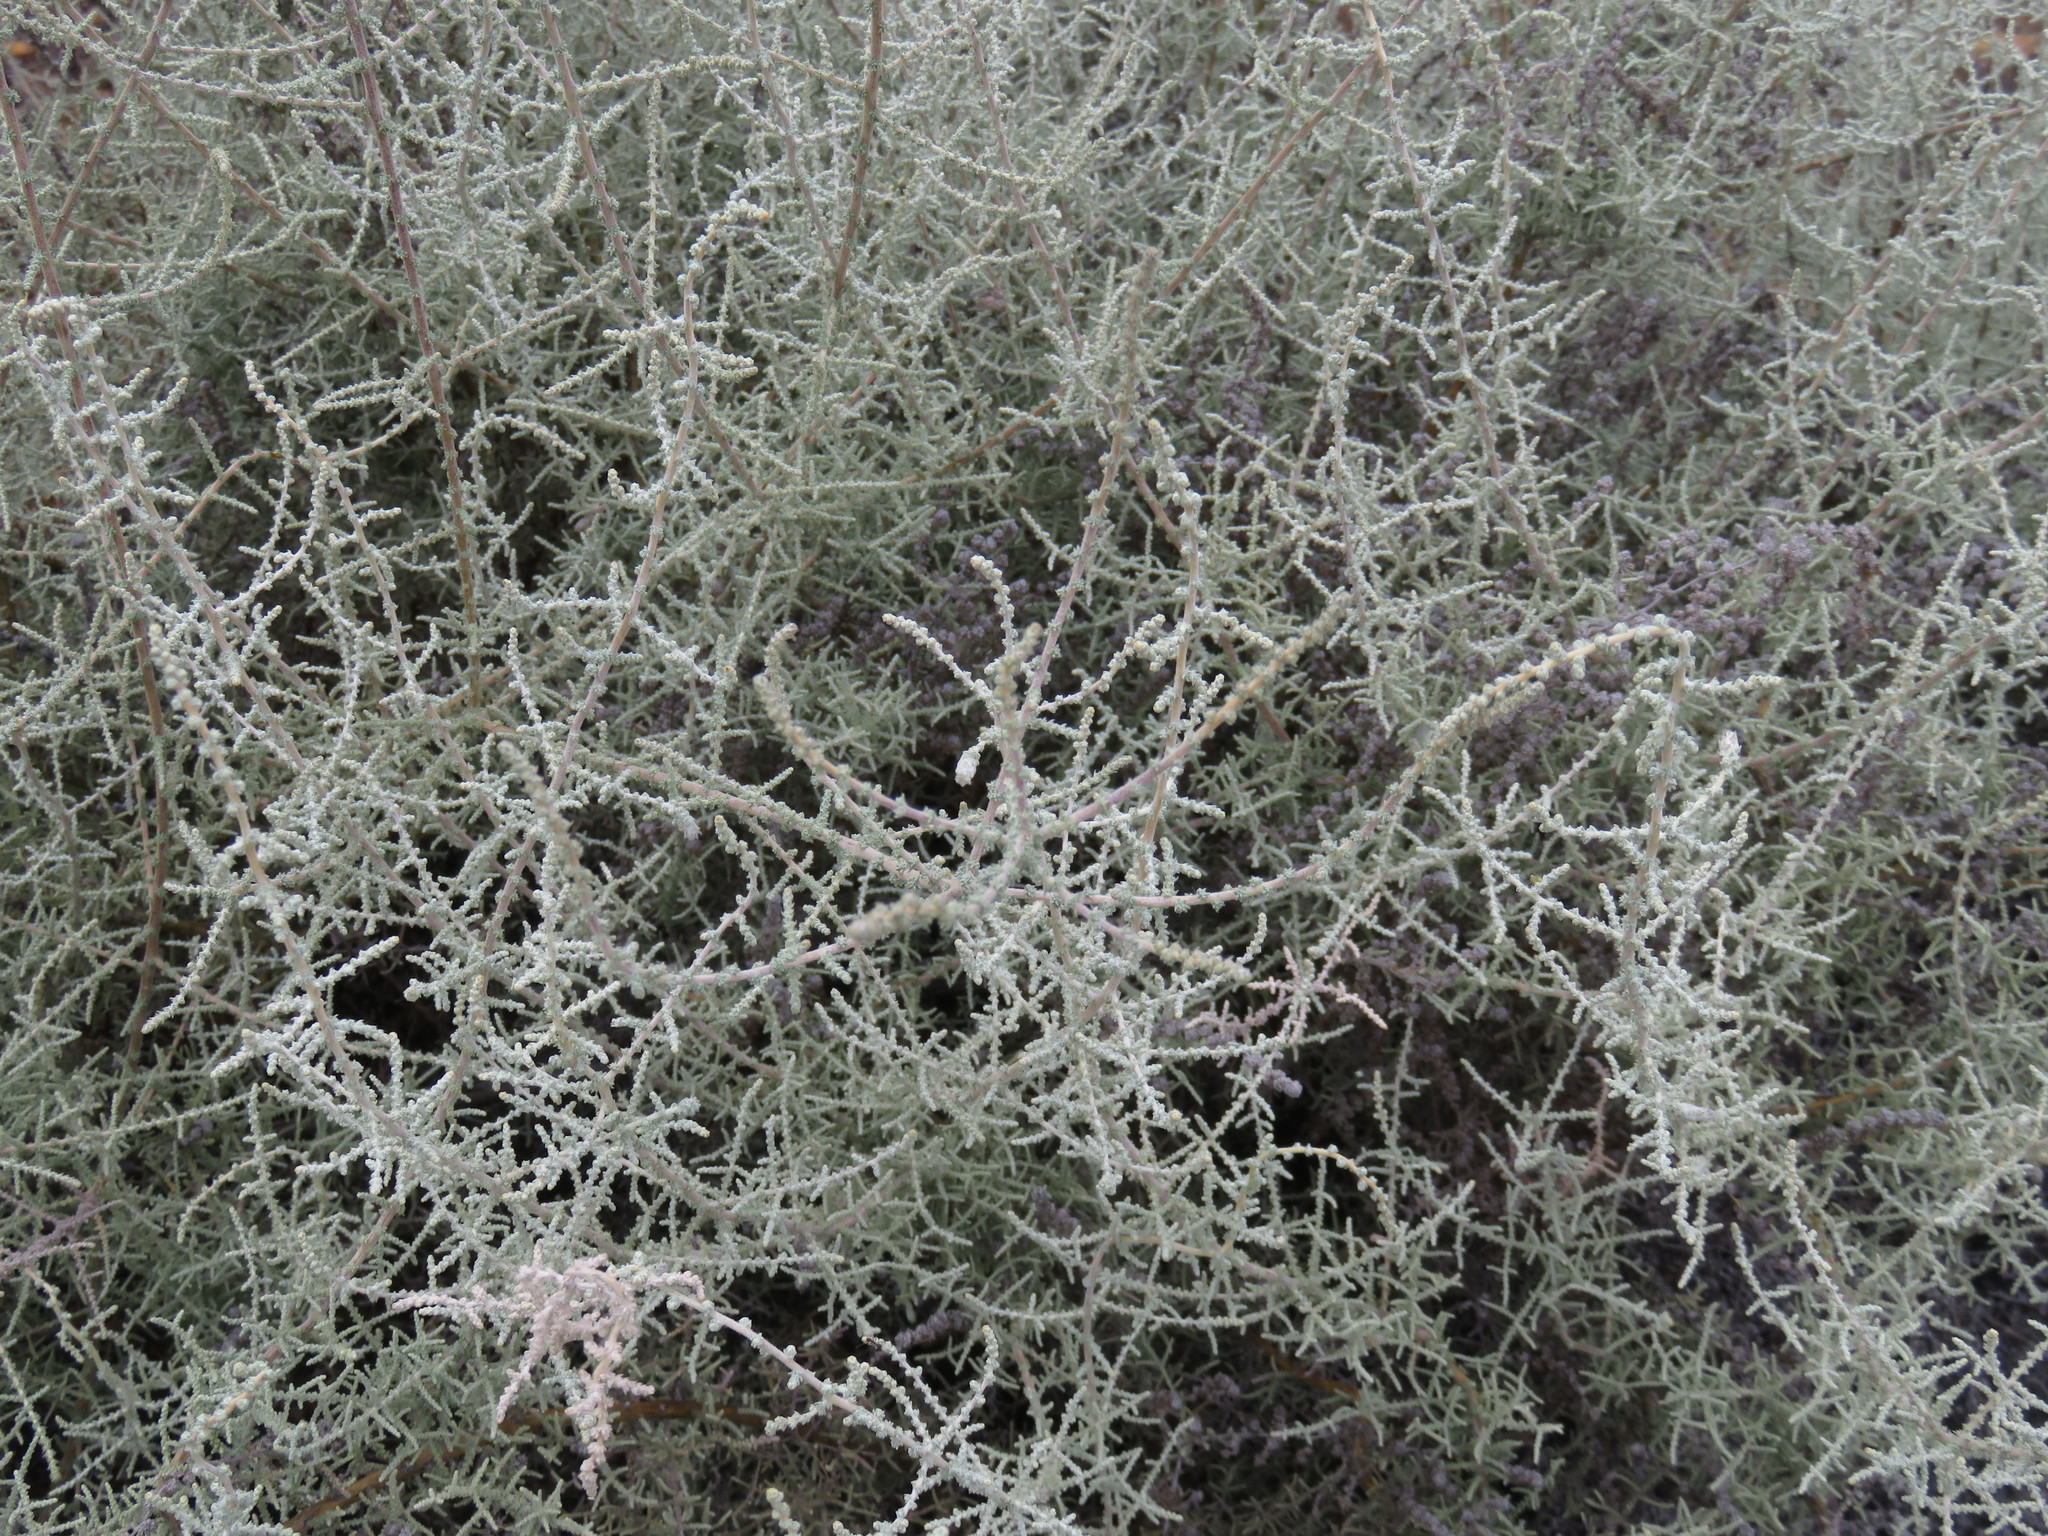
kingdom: Plantae
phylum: Tracheophyta
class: Magnoliopsida
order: Asterales
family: Asteraceae
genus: Seriphium
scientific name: Seriphium plumosum
